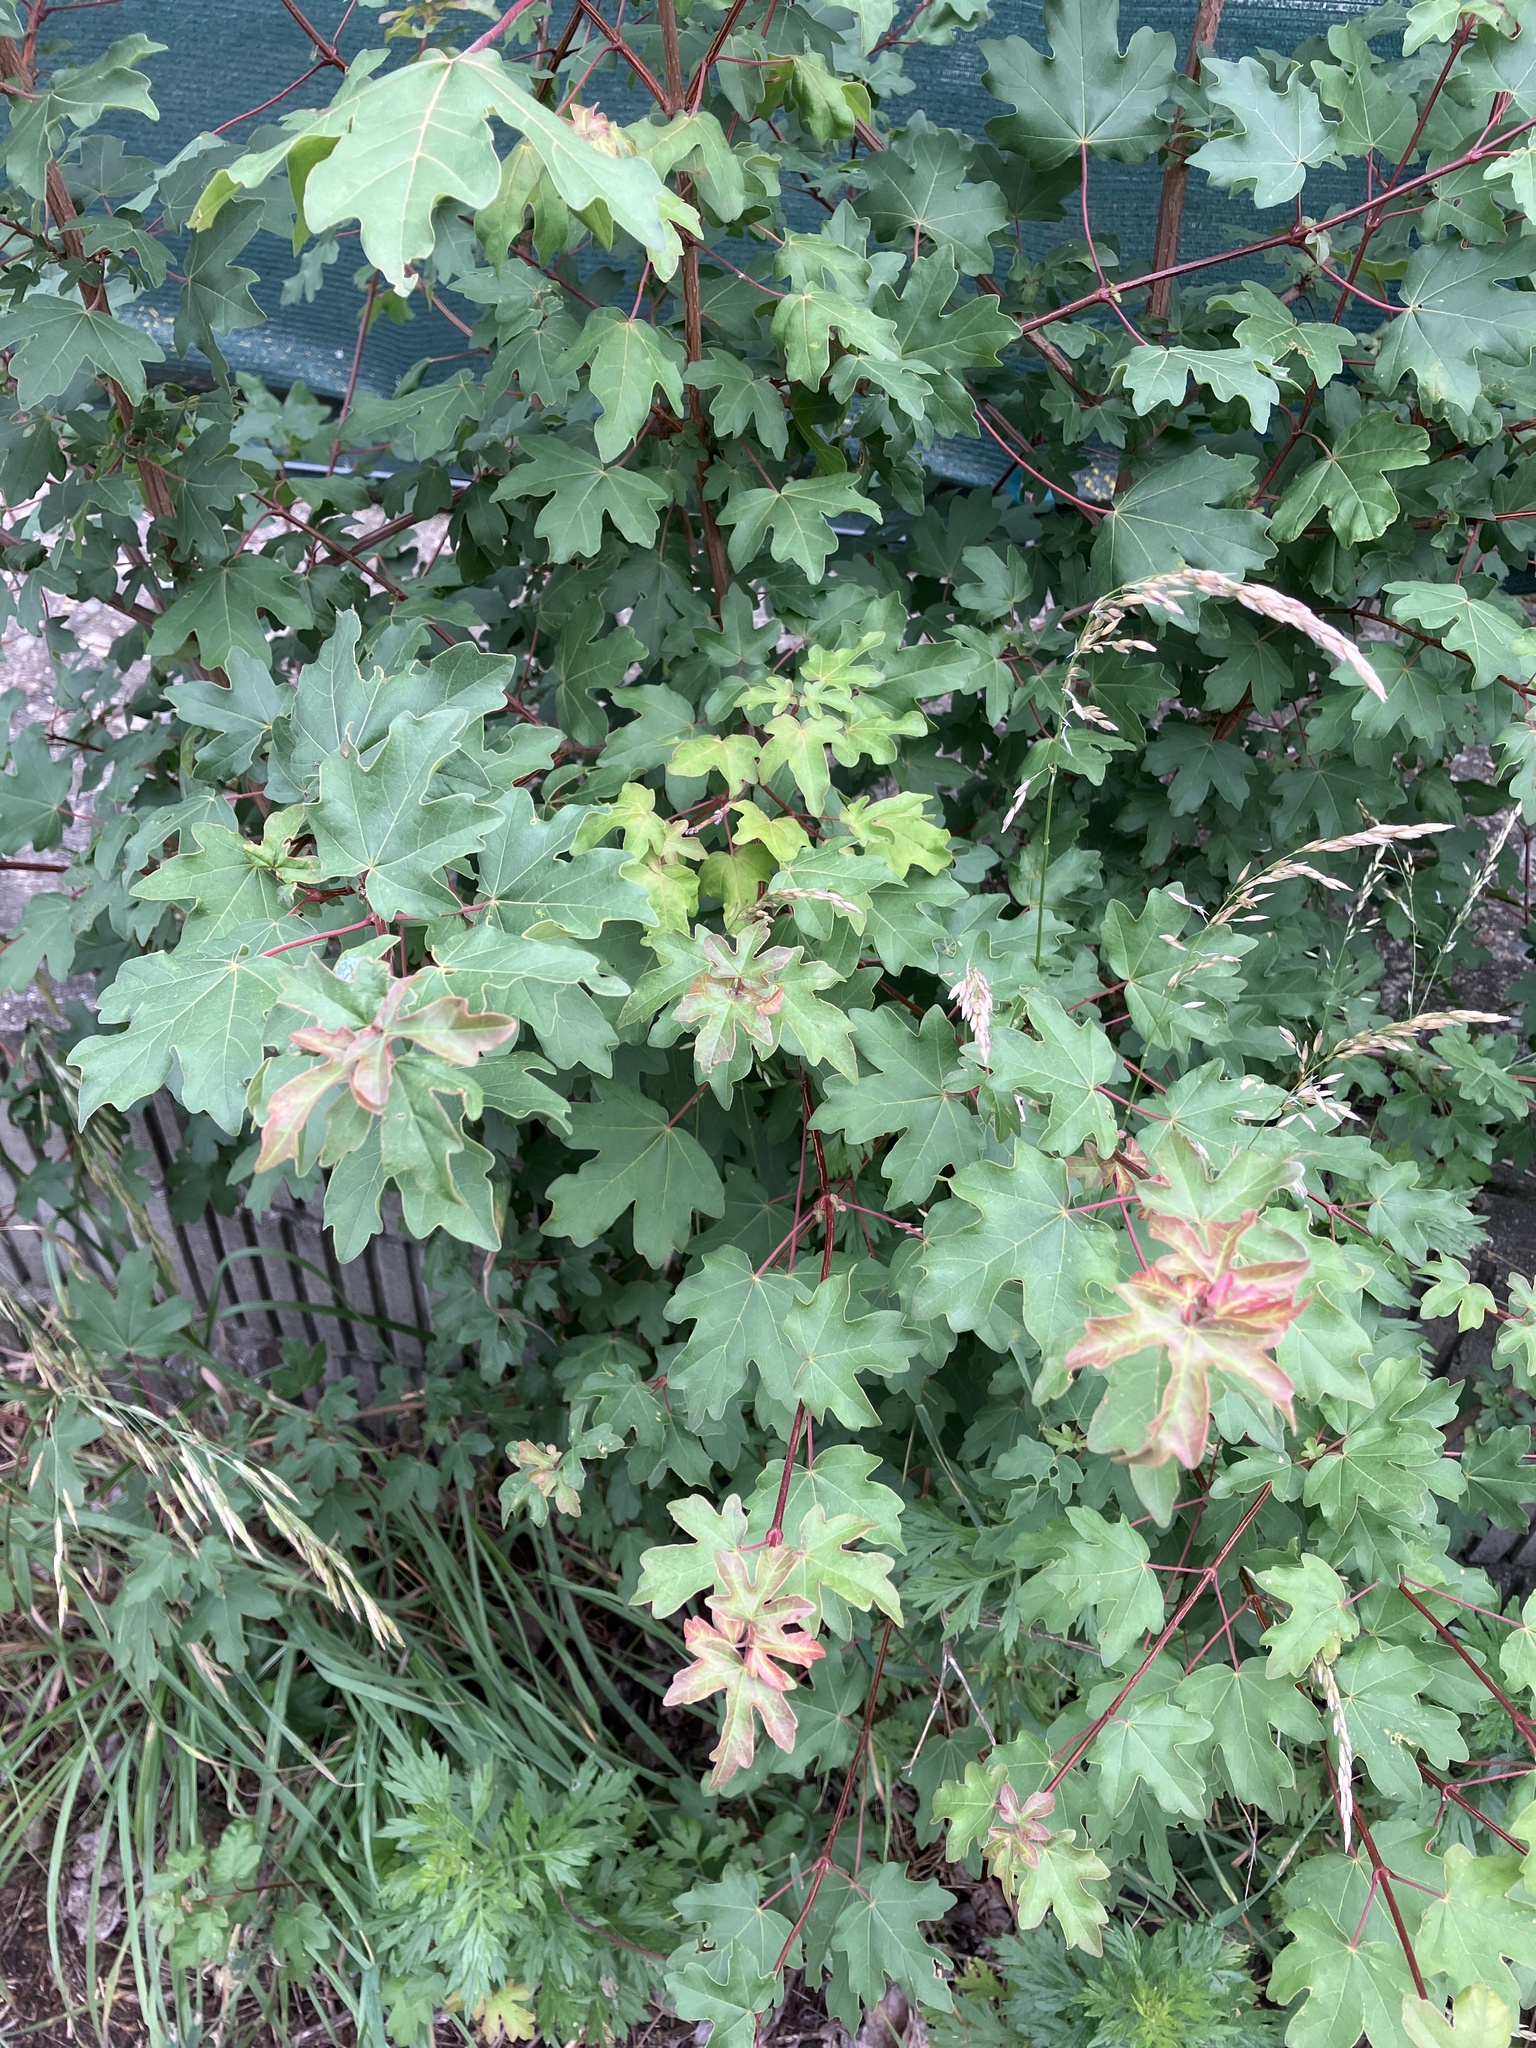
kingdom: Plantae
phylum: Tracheophyta
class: Magnoliopsida
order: Sapindales
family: Sapindaceae
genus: Acer
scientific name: Acer campestre
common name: Field maple
